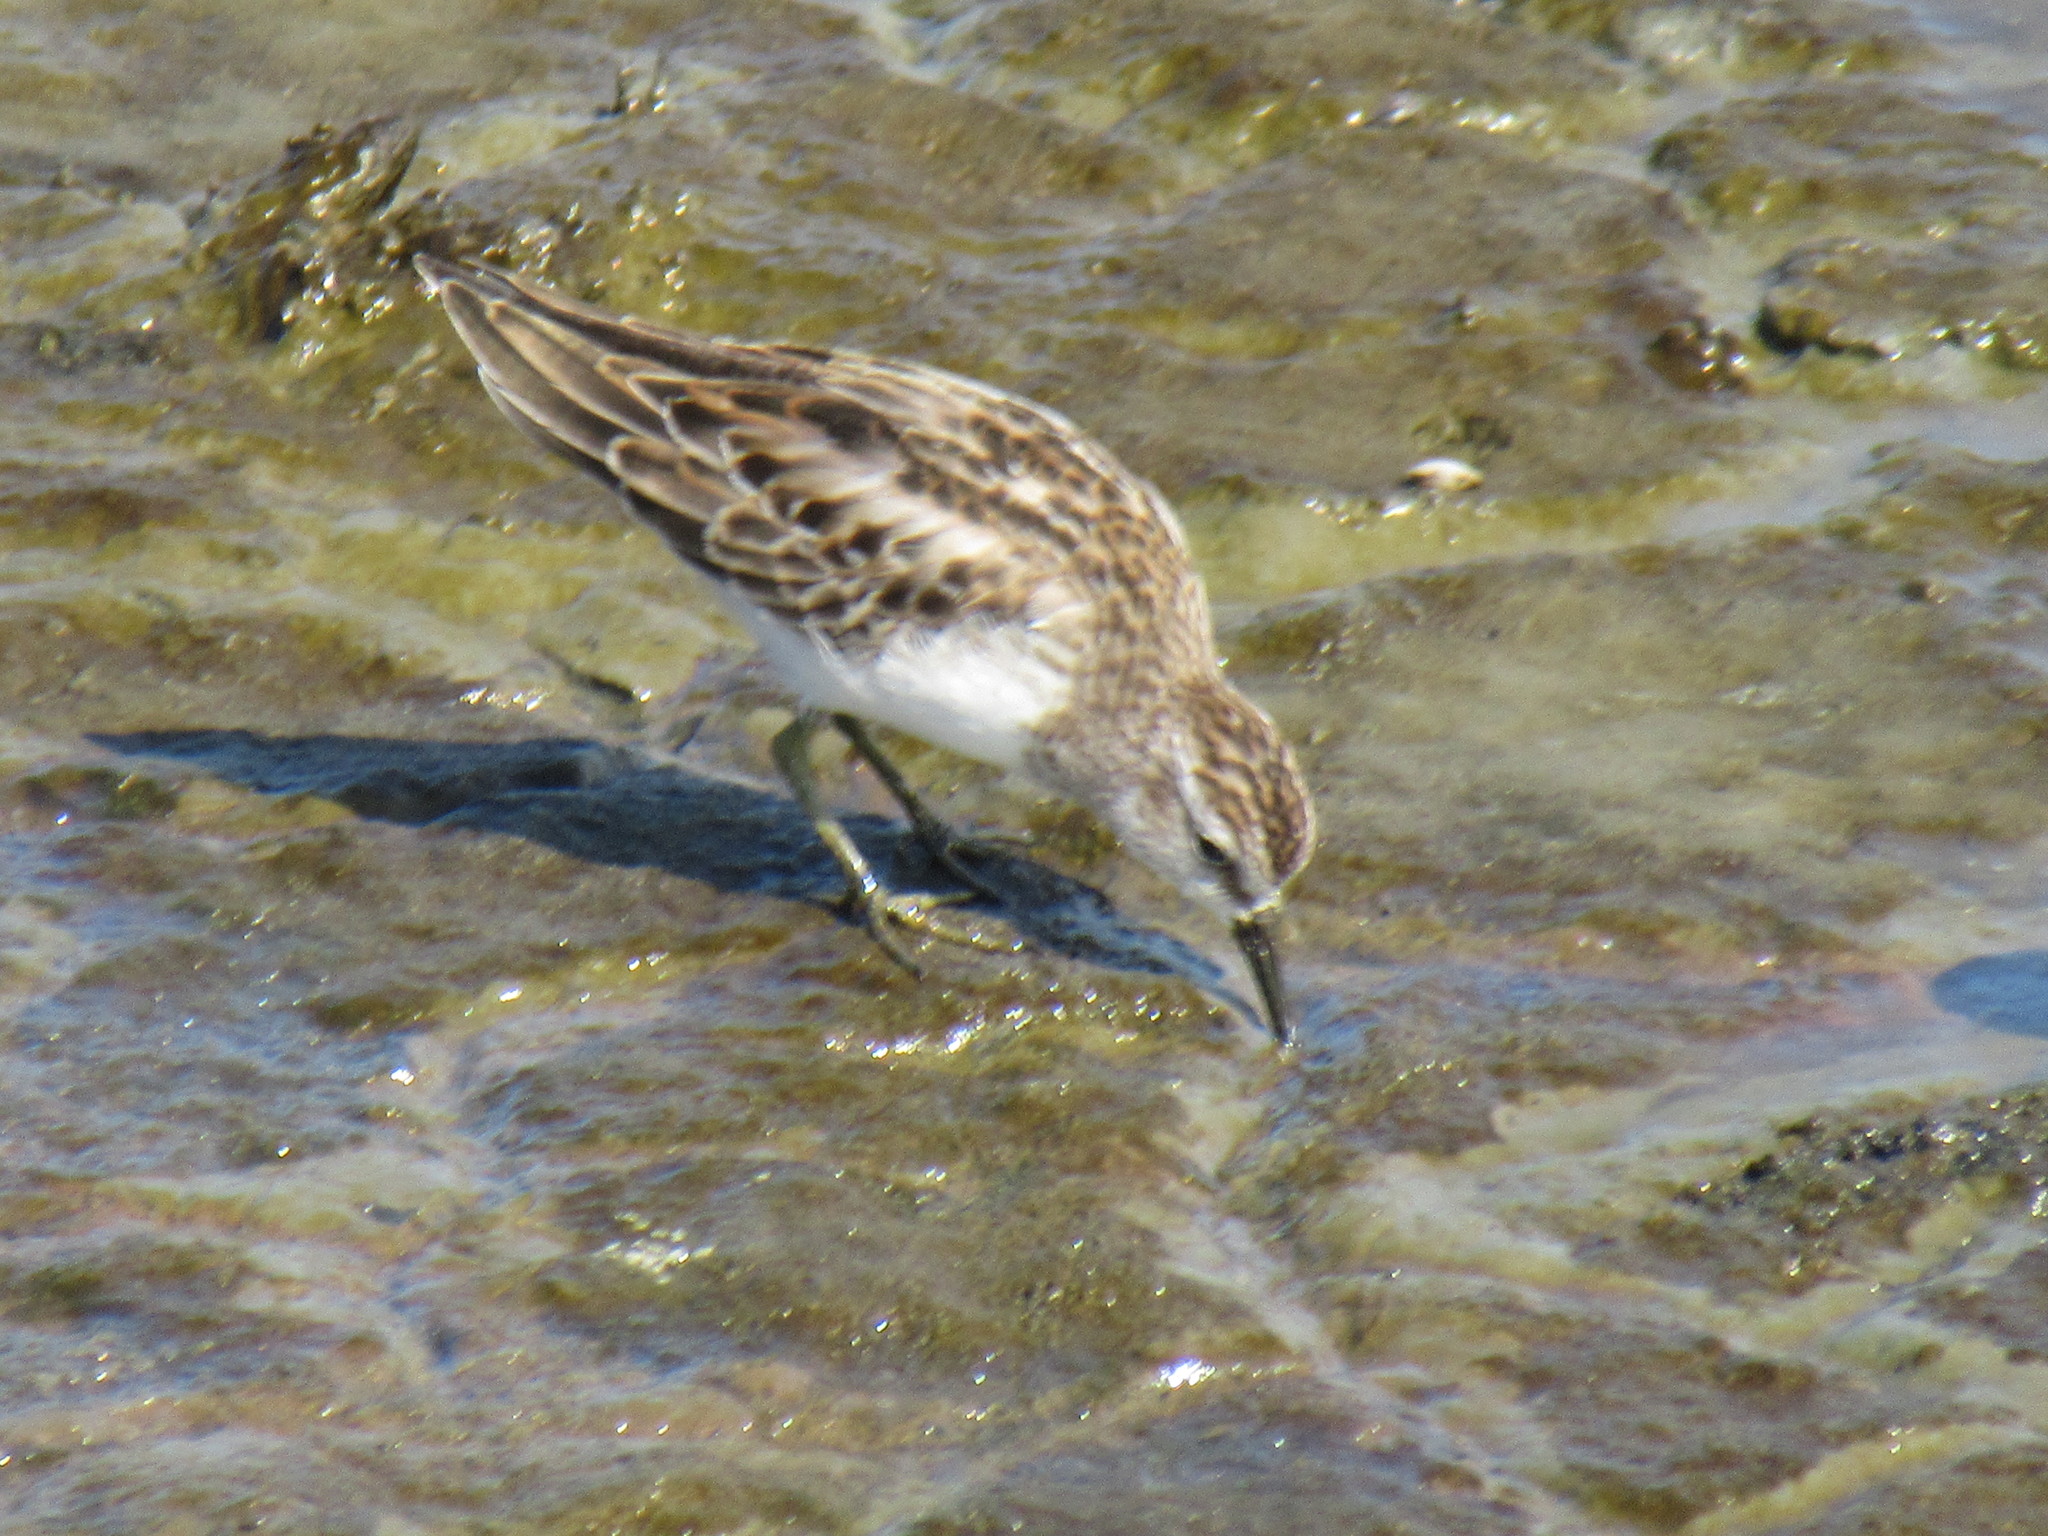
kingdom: Animalia
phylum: Chordata
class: Aves
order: Charadriiformes
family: Scolopacidae
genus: Calidris
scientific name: Calidris minutilla
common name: Least sandpiper
